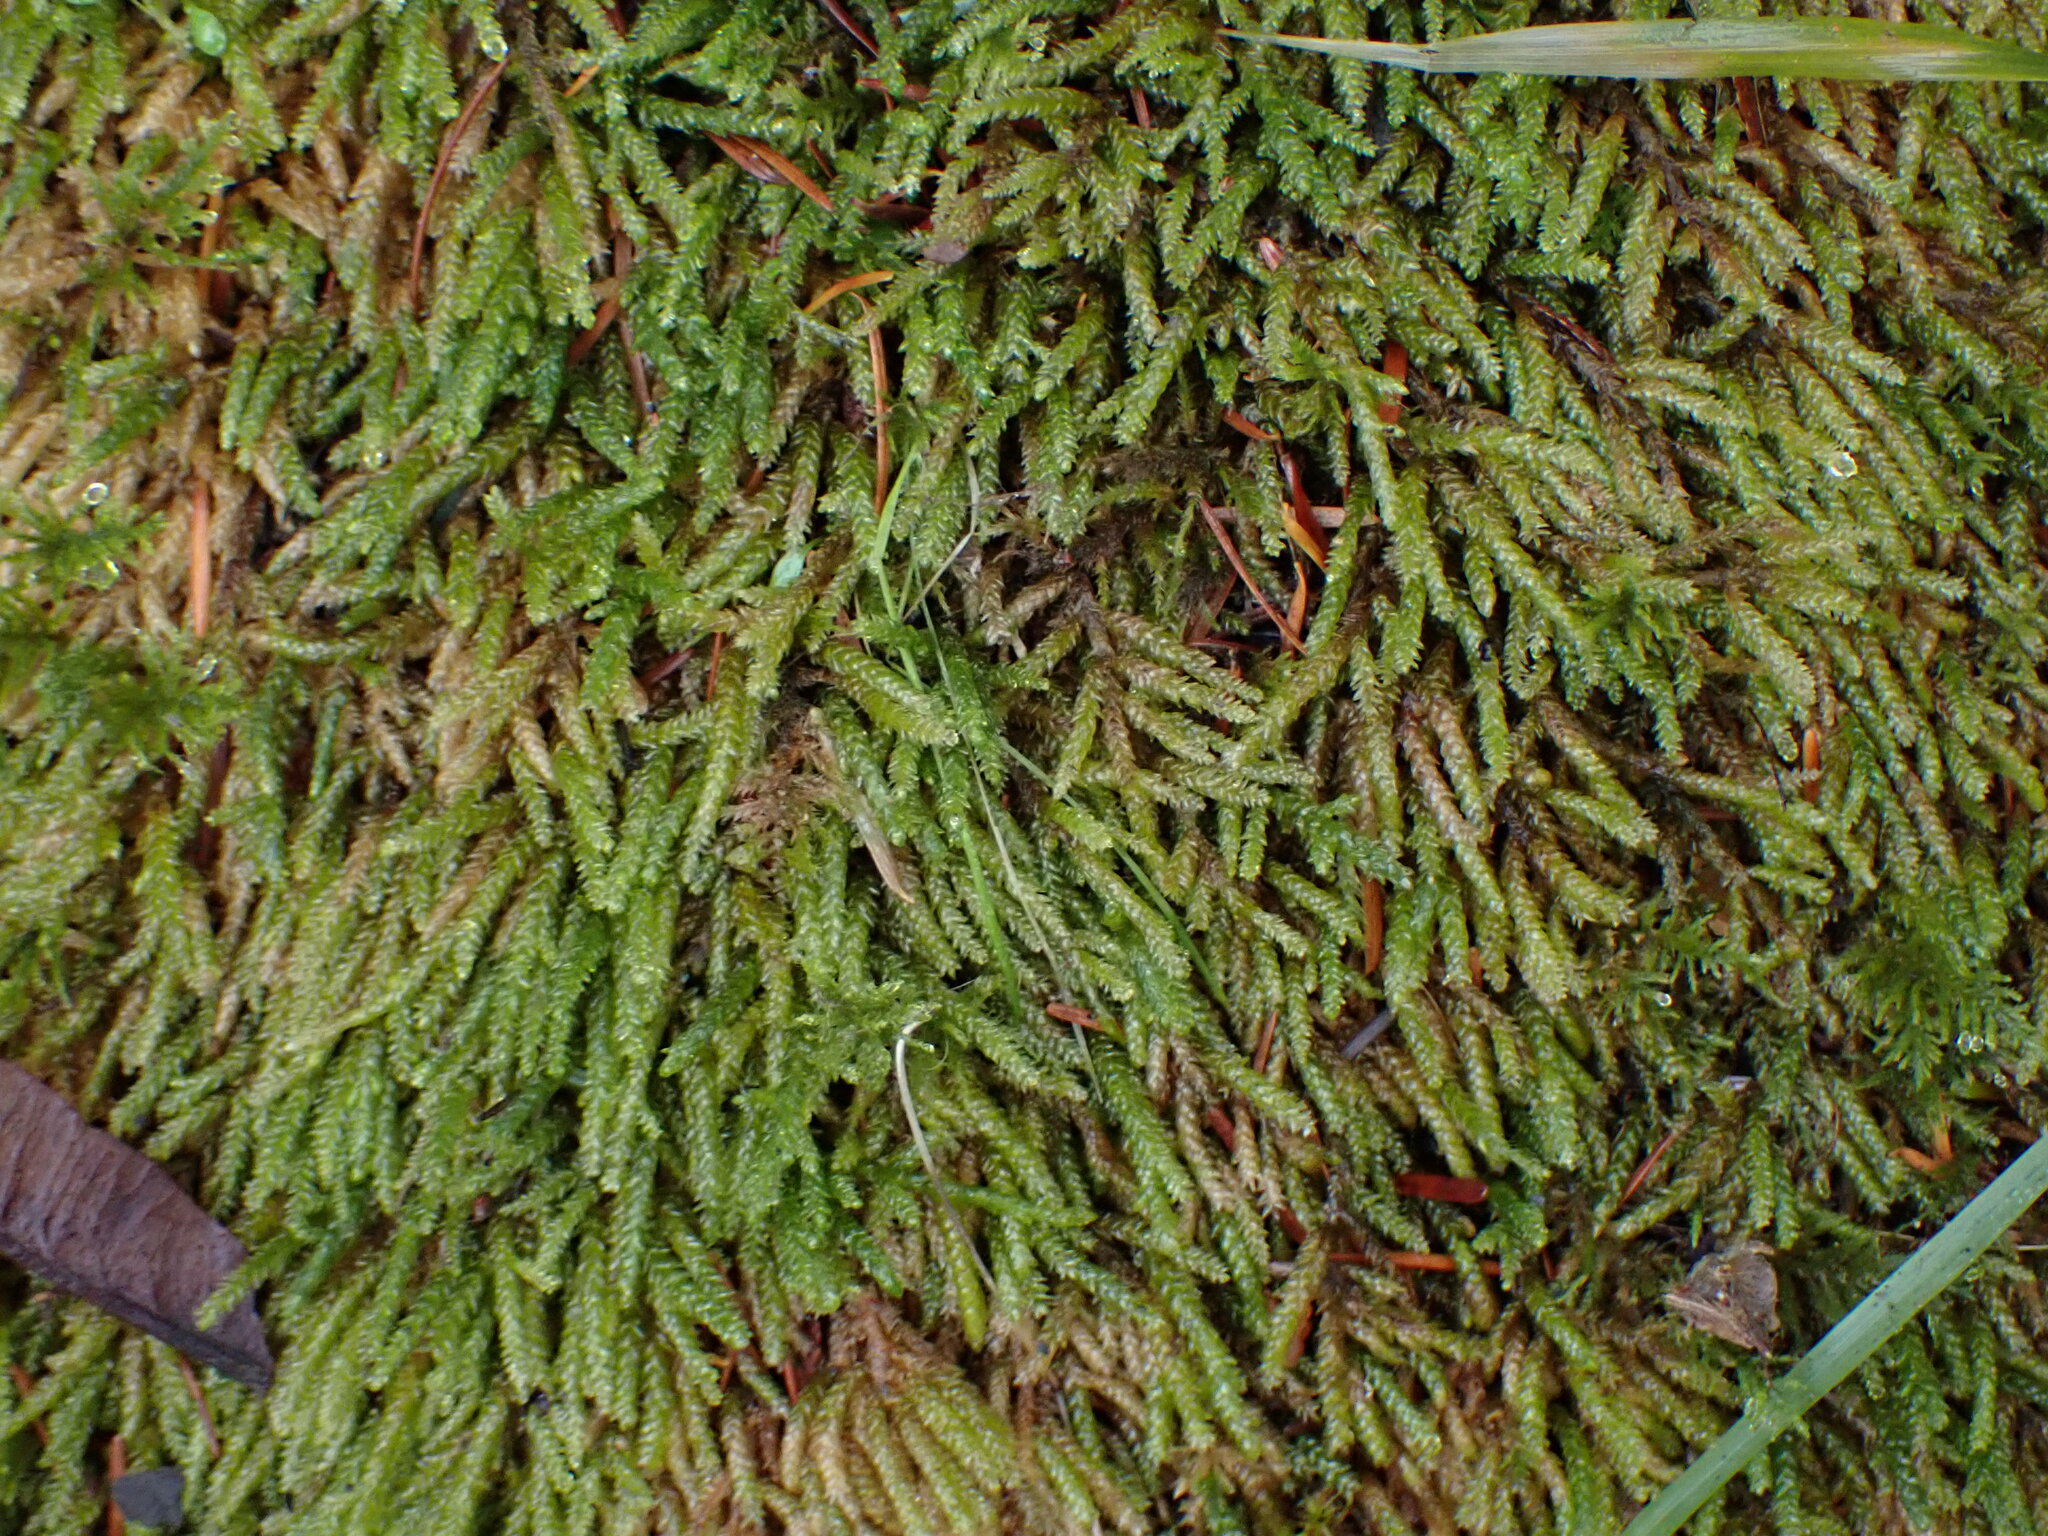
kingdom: Plantae
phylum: Bryophyta
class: Bryopsida
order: Hypnales
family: Brachytheciaceae
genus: Scleropodium
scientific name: Scleropodium obtusifolium
